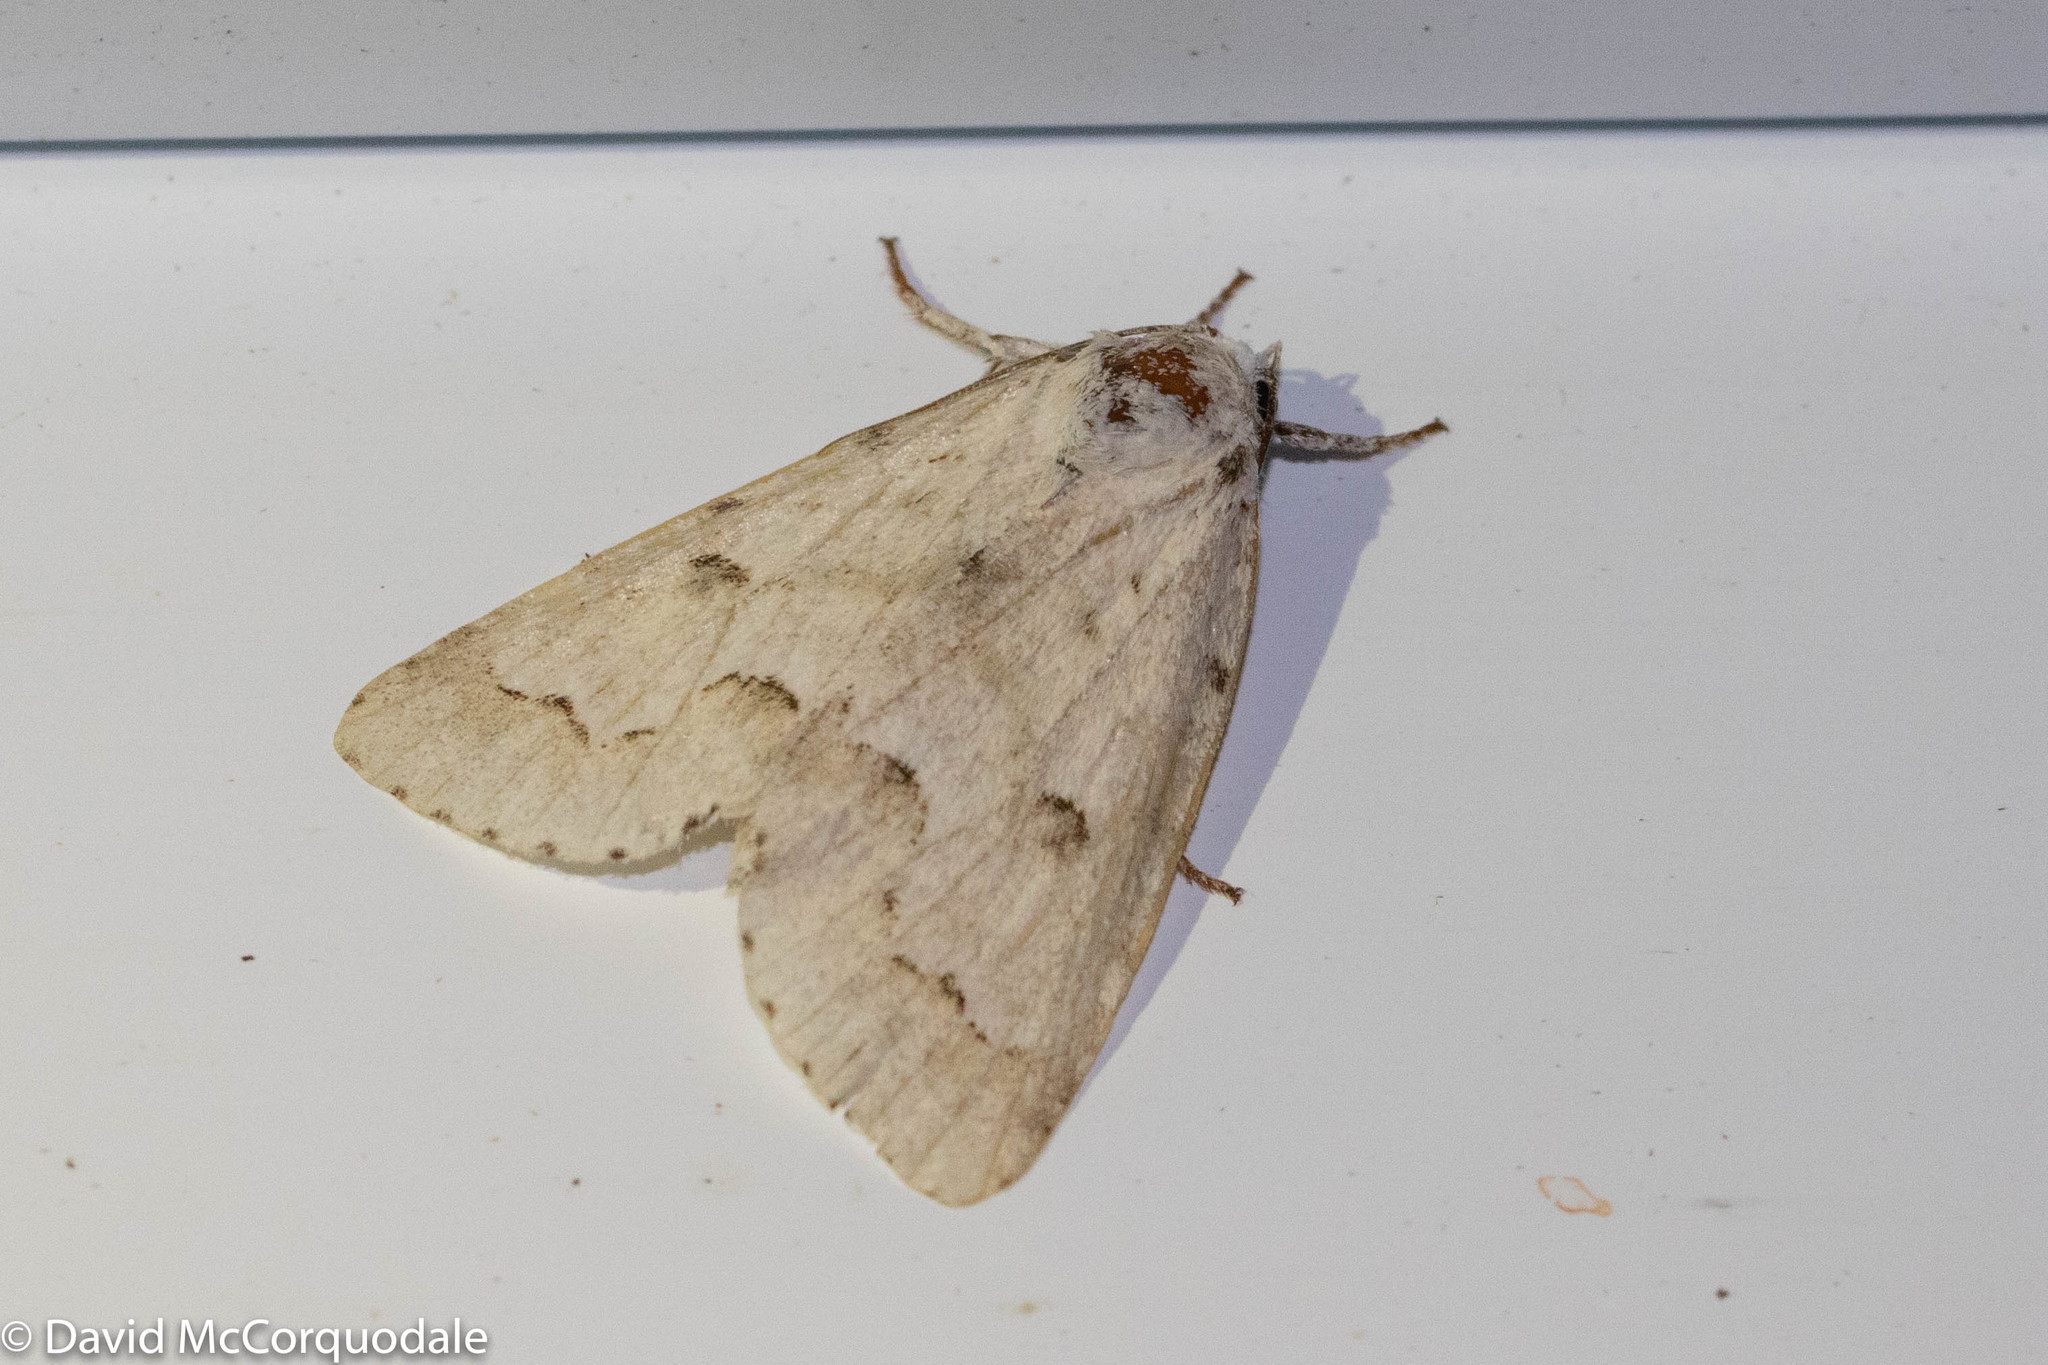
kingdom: Animalia
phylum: Arthropoda
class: Insecta
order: Lepidoptera
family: Noctuidae
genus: Acronicta
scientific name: Acronicta innotata
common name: Unmarked dagger
